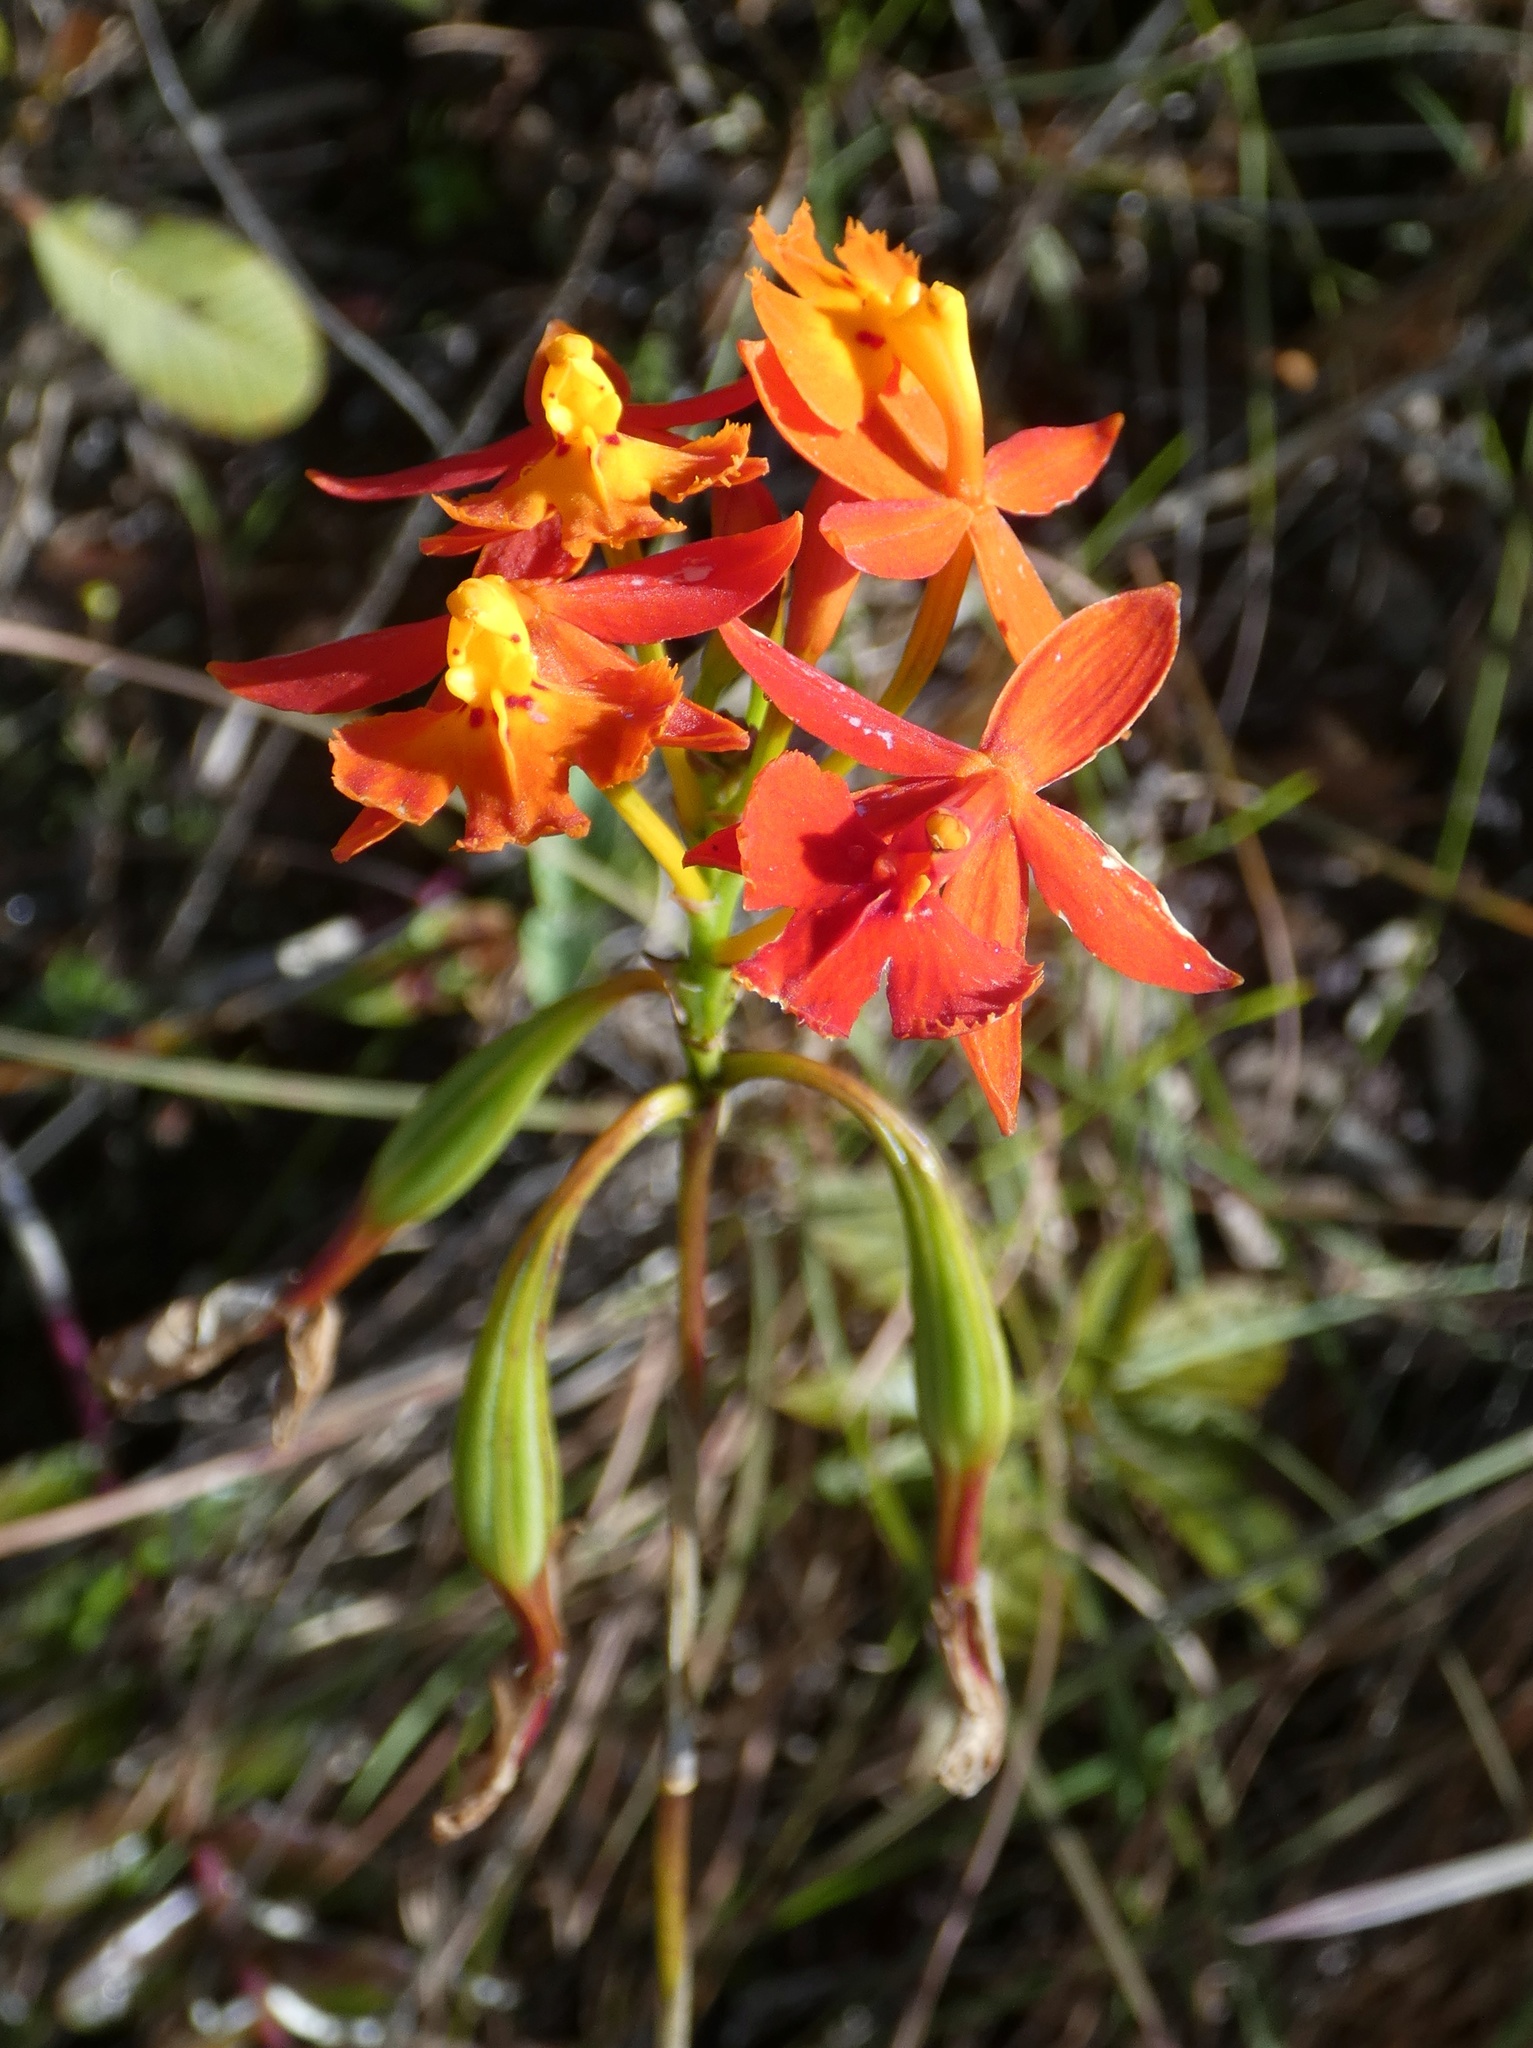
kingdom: Plantae
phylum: Tracheophyta
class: Liliopsida
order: Asparagales
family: Orchidaceae
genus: Epidendrum
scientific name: Epidendrum radicans
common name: Fire star orchid
